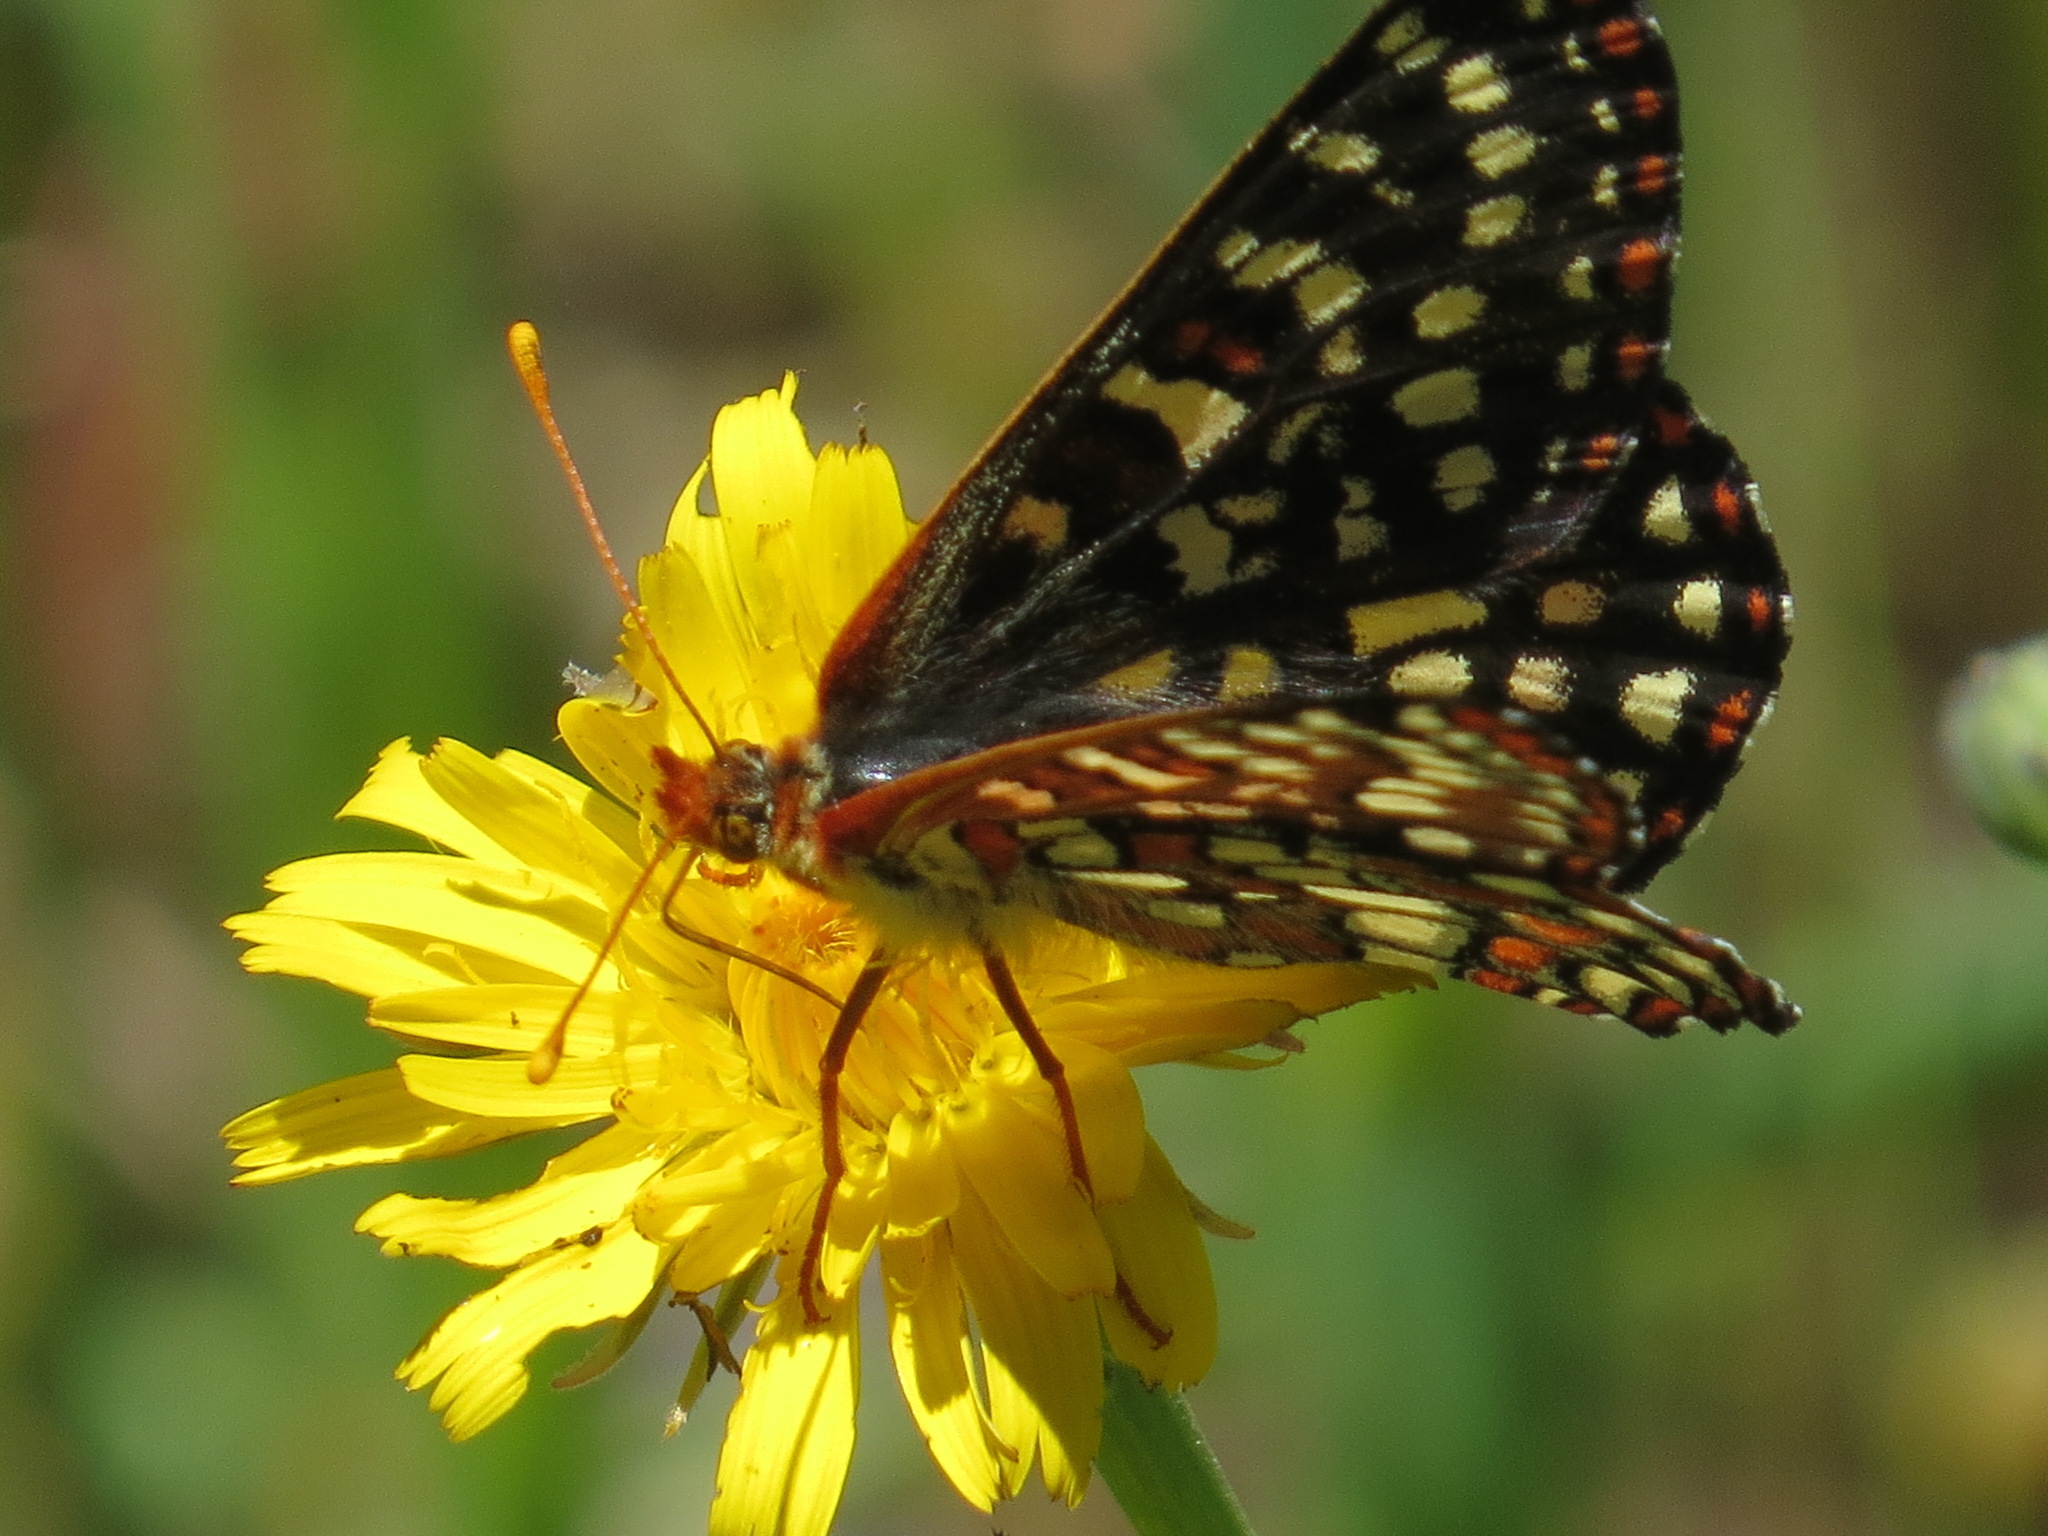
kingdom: Animalia
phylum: Arthropoda
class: Insecta
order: Lepidoptera
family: Nymphalidae
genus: Occidryas
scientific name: Occidryas chalcedona
